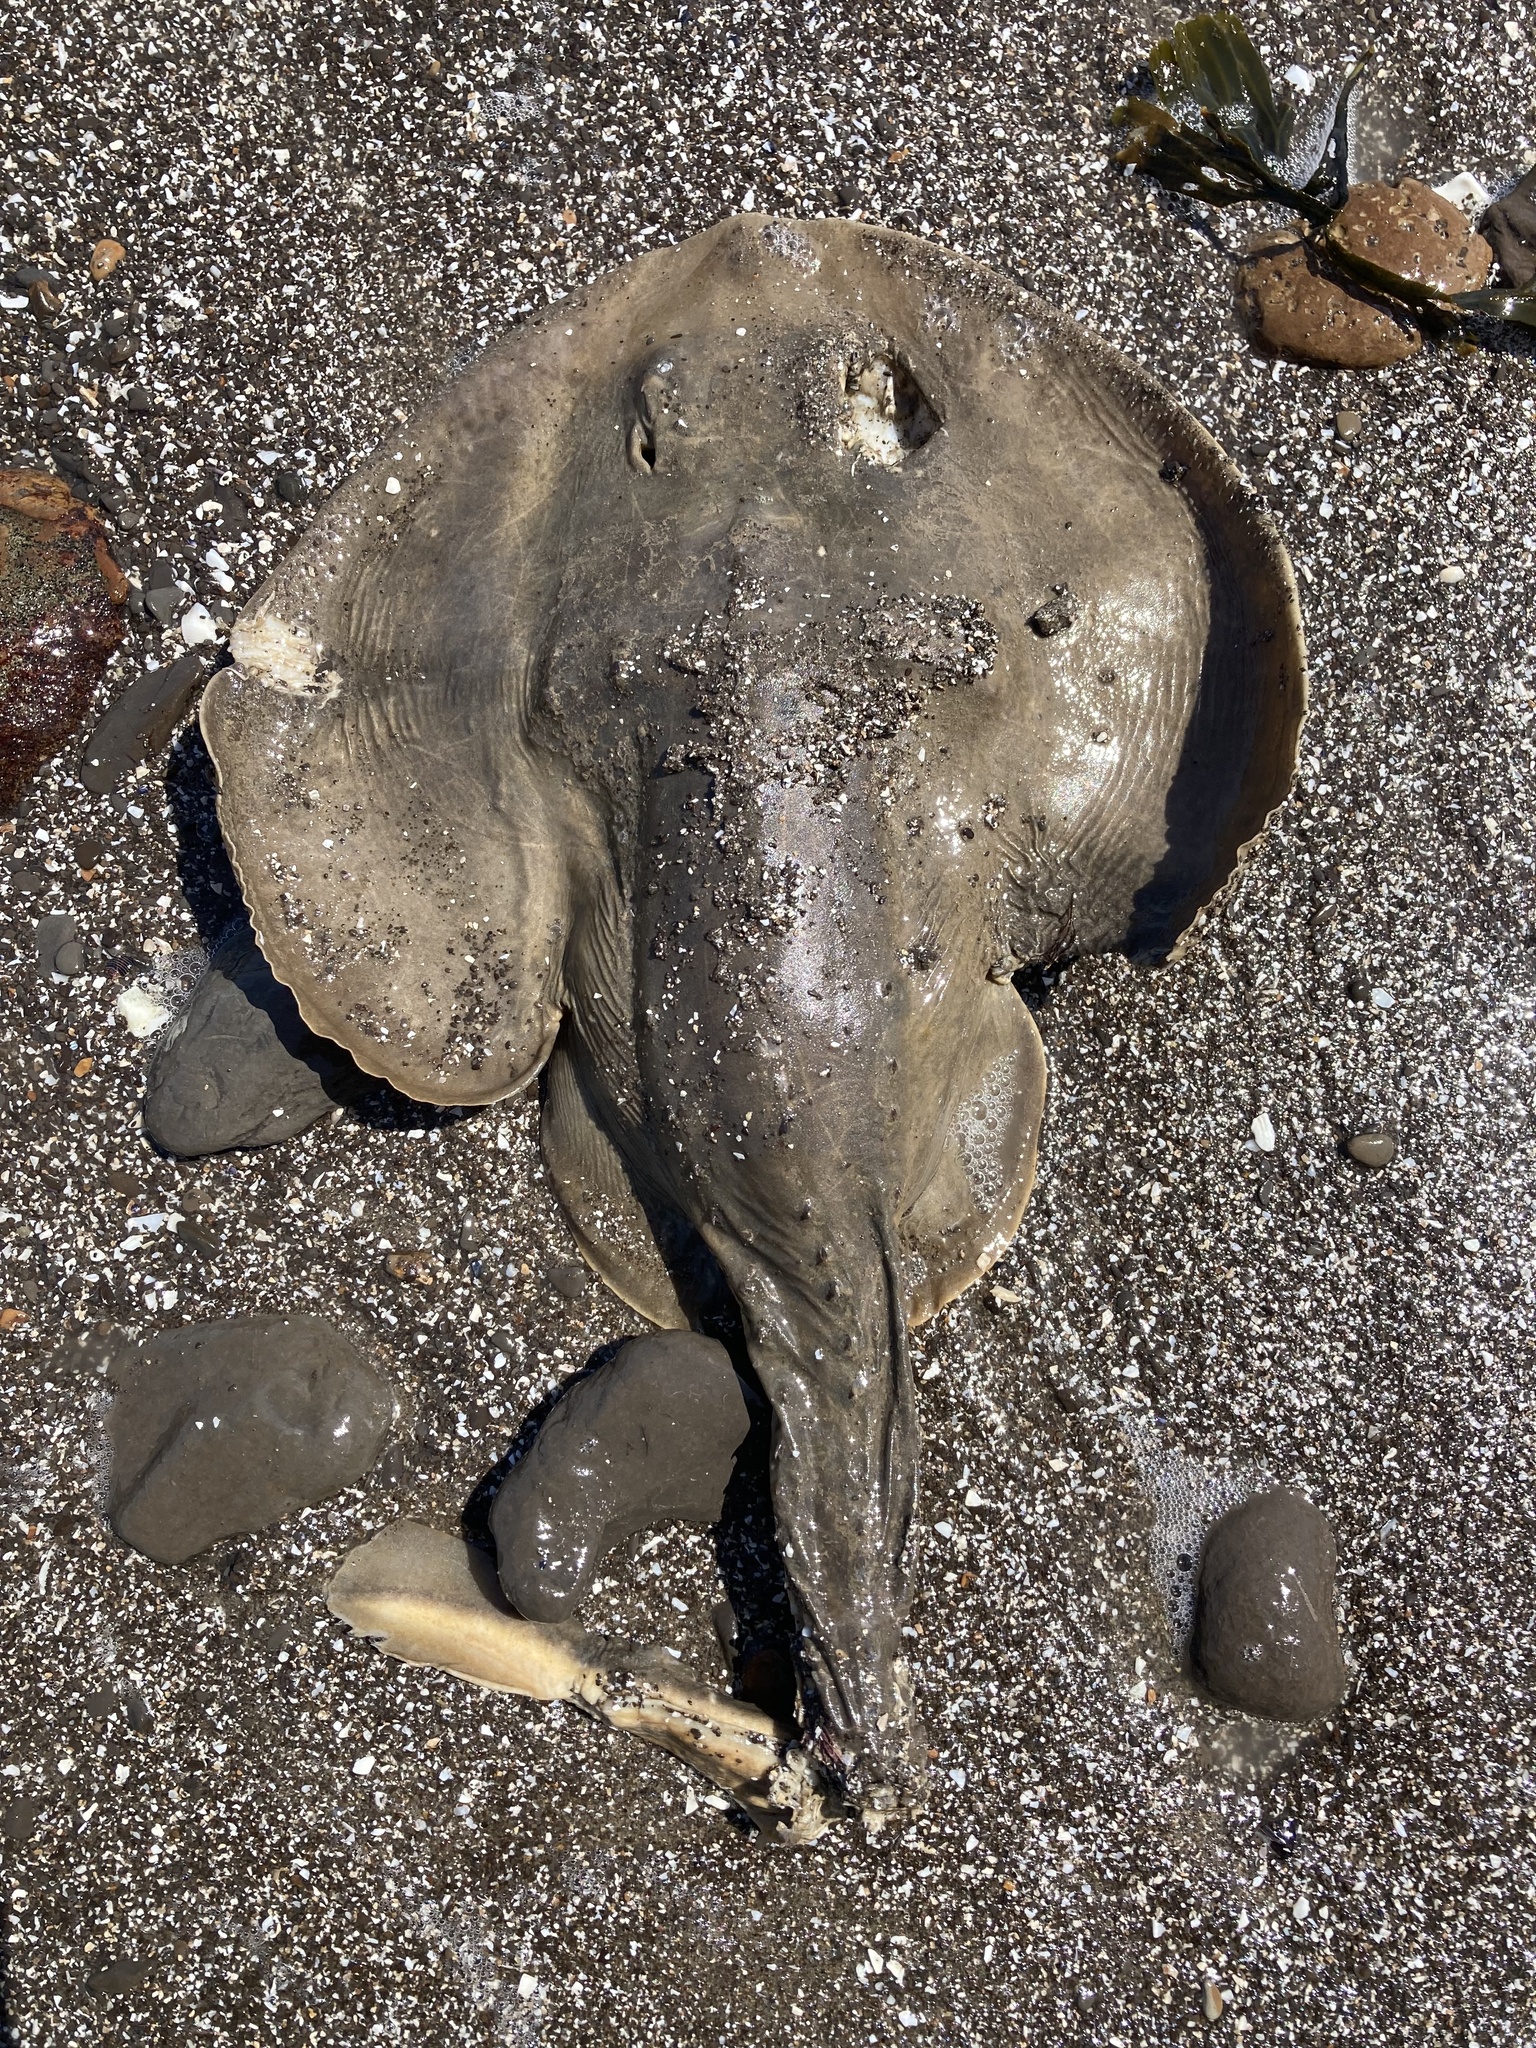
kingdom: Animalia
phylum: Chordata
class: Elasmobranchii
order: Rhinopristiformes
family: Rhinobatidae
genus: Platyrhinoidis
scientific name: Platyrhinoidis triseriata
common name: Thornback
